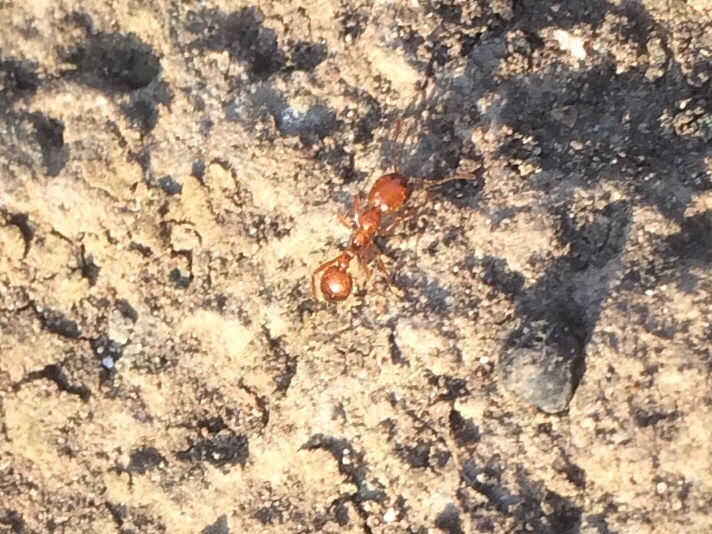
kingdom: Animalia
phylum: Arthropoda
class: Insecta
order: Hymenoptera
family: Formicidae
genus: Solenopsis
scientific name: Solenopsis geminata
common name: Tropical fire ant
